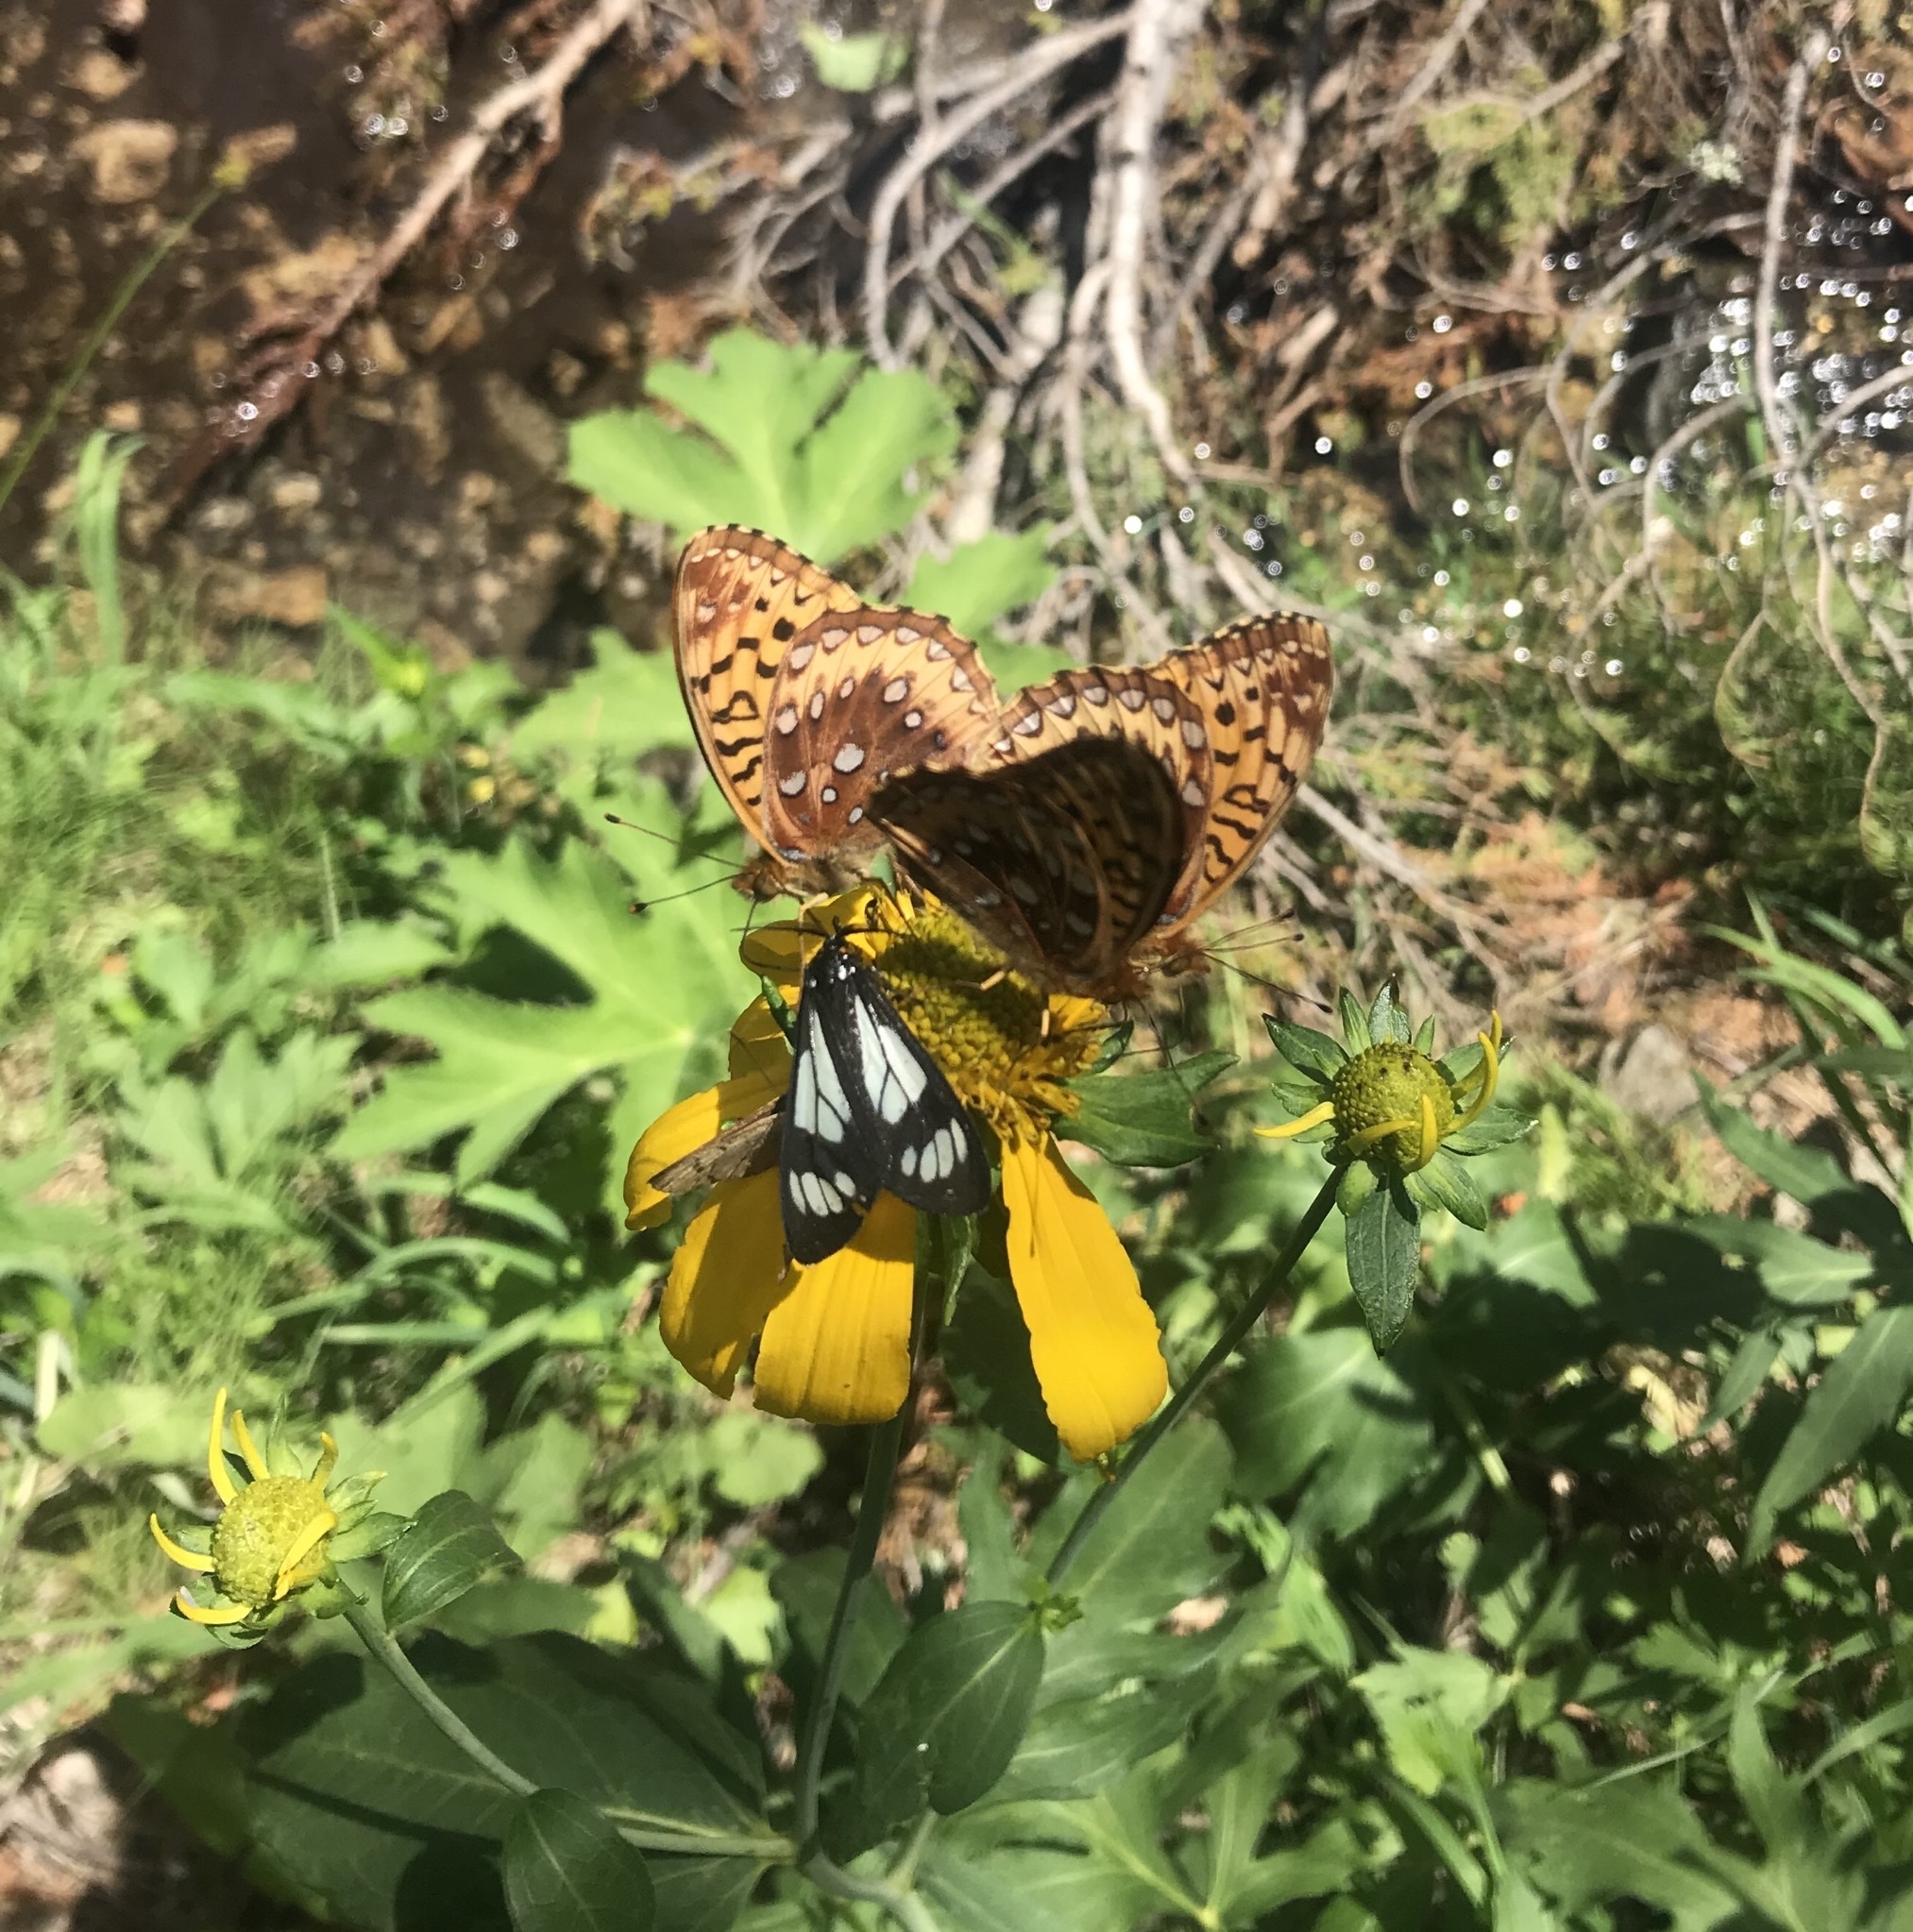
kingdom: Animalia
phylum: Arthropoda
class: Insecta
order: Lepidoptera
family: Nymphalidae
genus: Speyeria
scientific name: Speyeria cybele
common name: Great spangled fritillary
